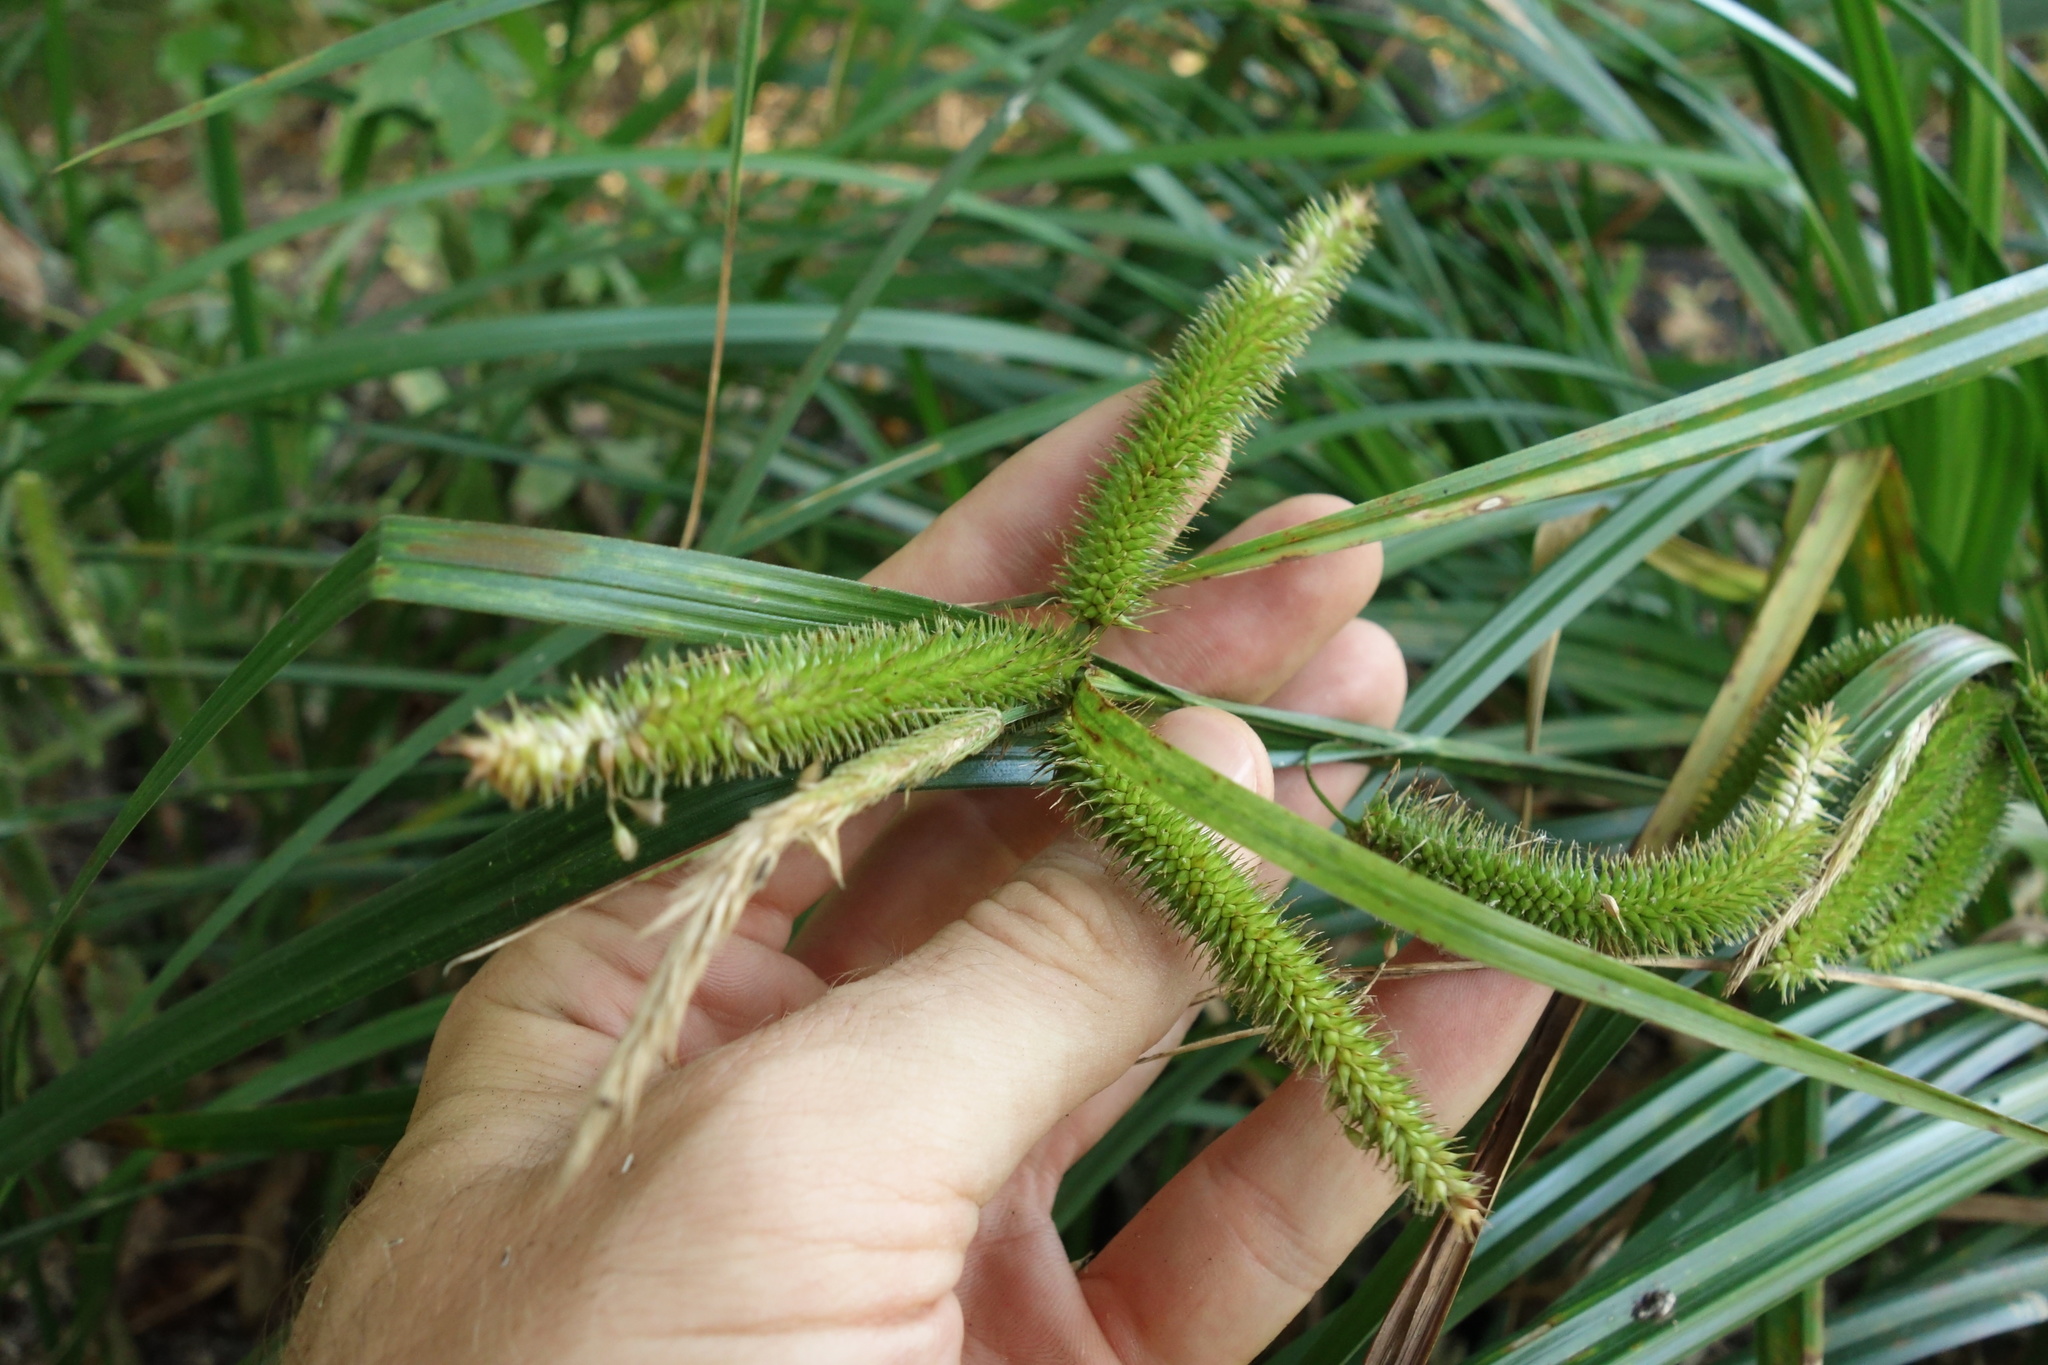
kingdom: Plantae
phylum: Tracheophyta
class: Liliopsida
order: Poales
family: Cyperaceae
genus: Carex
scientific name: Carex pseudocyperus
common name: Cyperus sedge
